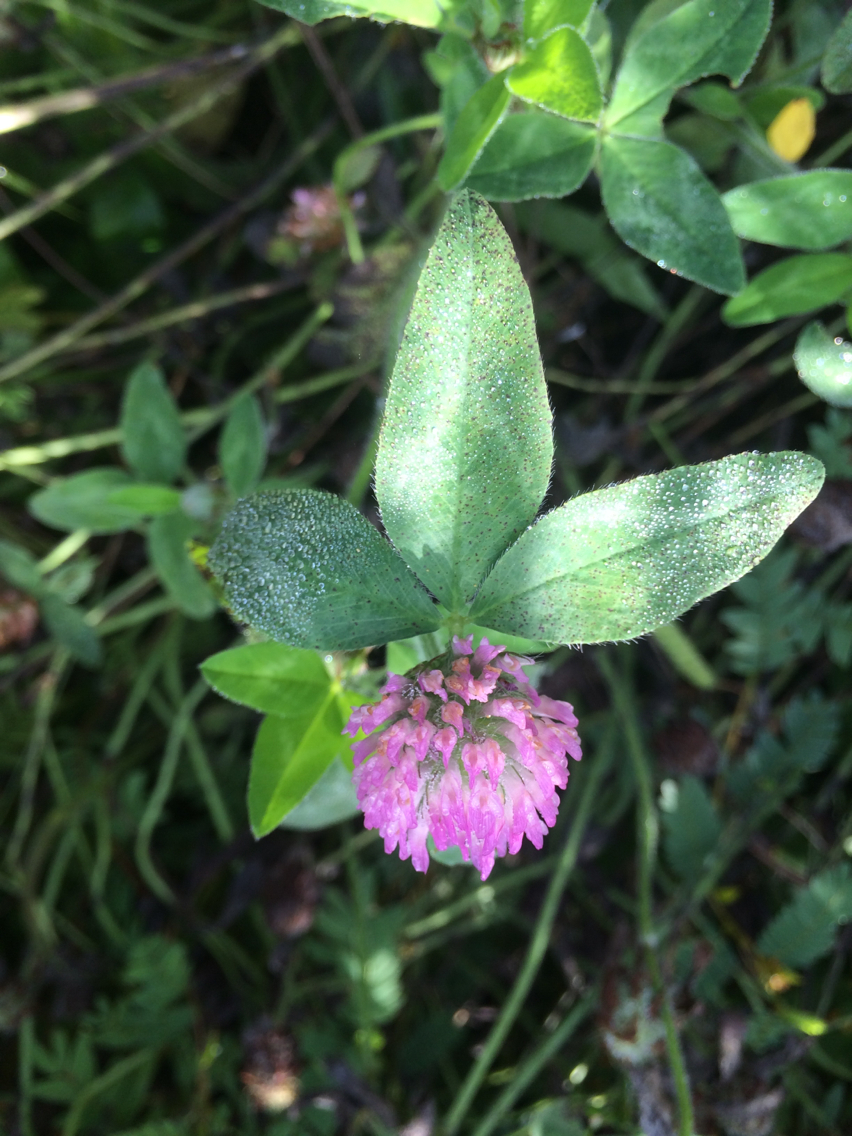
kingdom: Plantae
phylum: Tracheophyta
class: Magnoliopsida
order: Fabales
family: Fabaceae
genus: Trifolium
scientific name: Trifolium pratense
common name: Red clover
